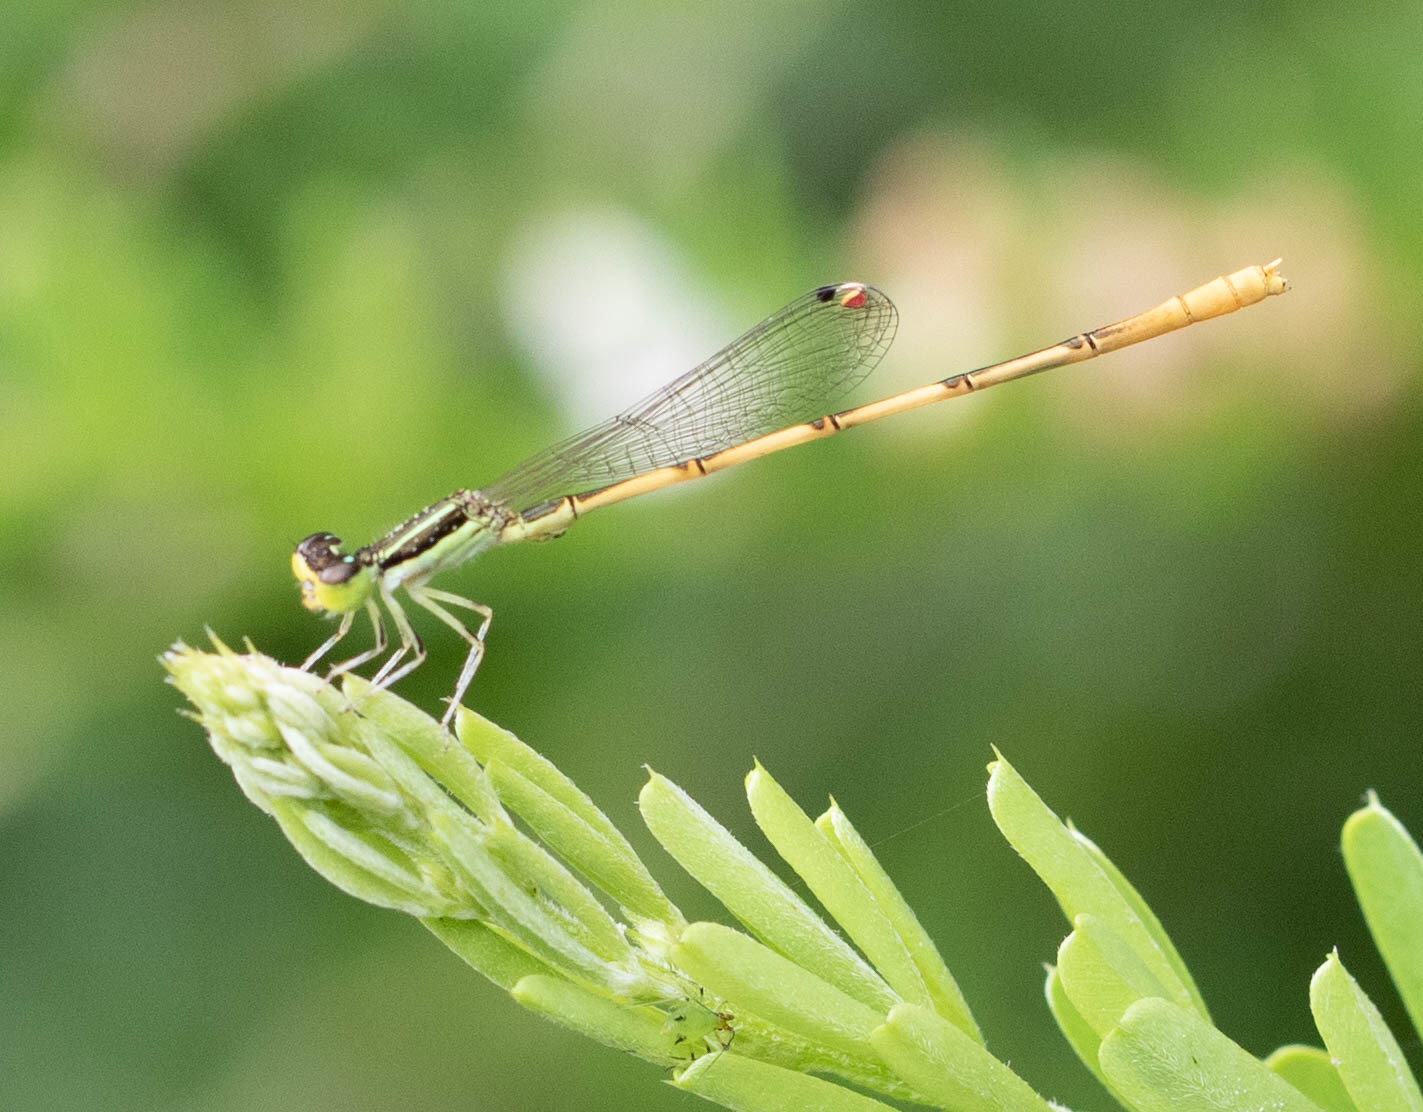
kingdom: Animalia
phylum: Arthropoda
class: Insecta
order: Odonata
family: Coenagrionidae
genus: Ischnura
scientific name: Ischnura hastata
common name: Citrine forktail
